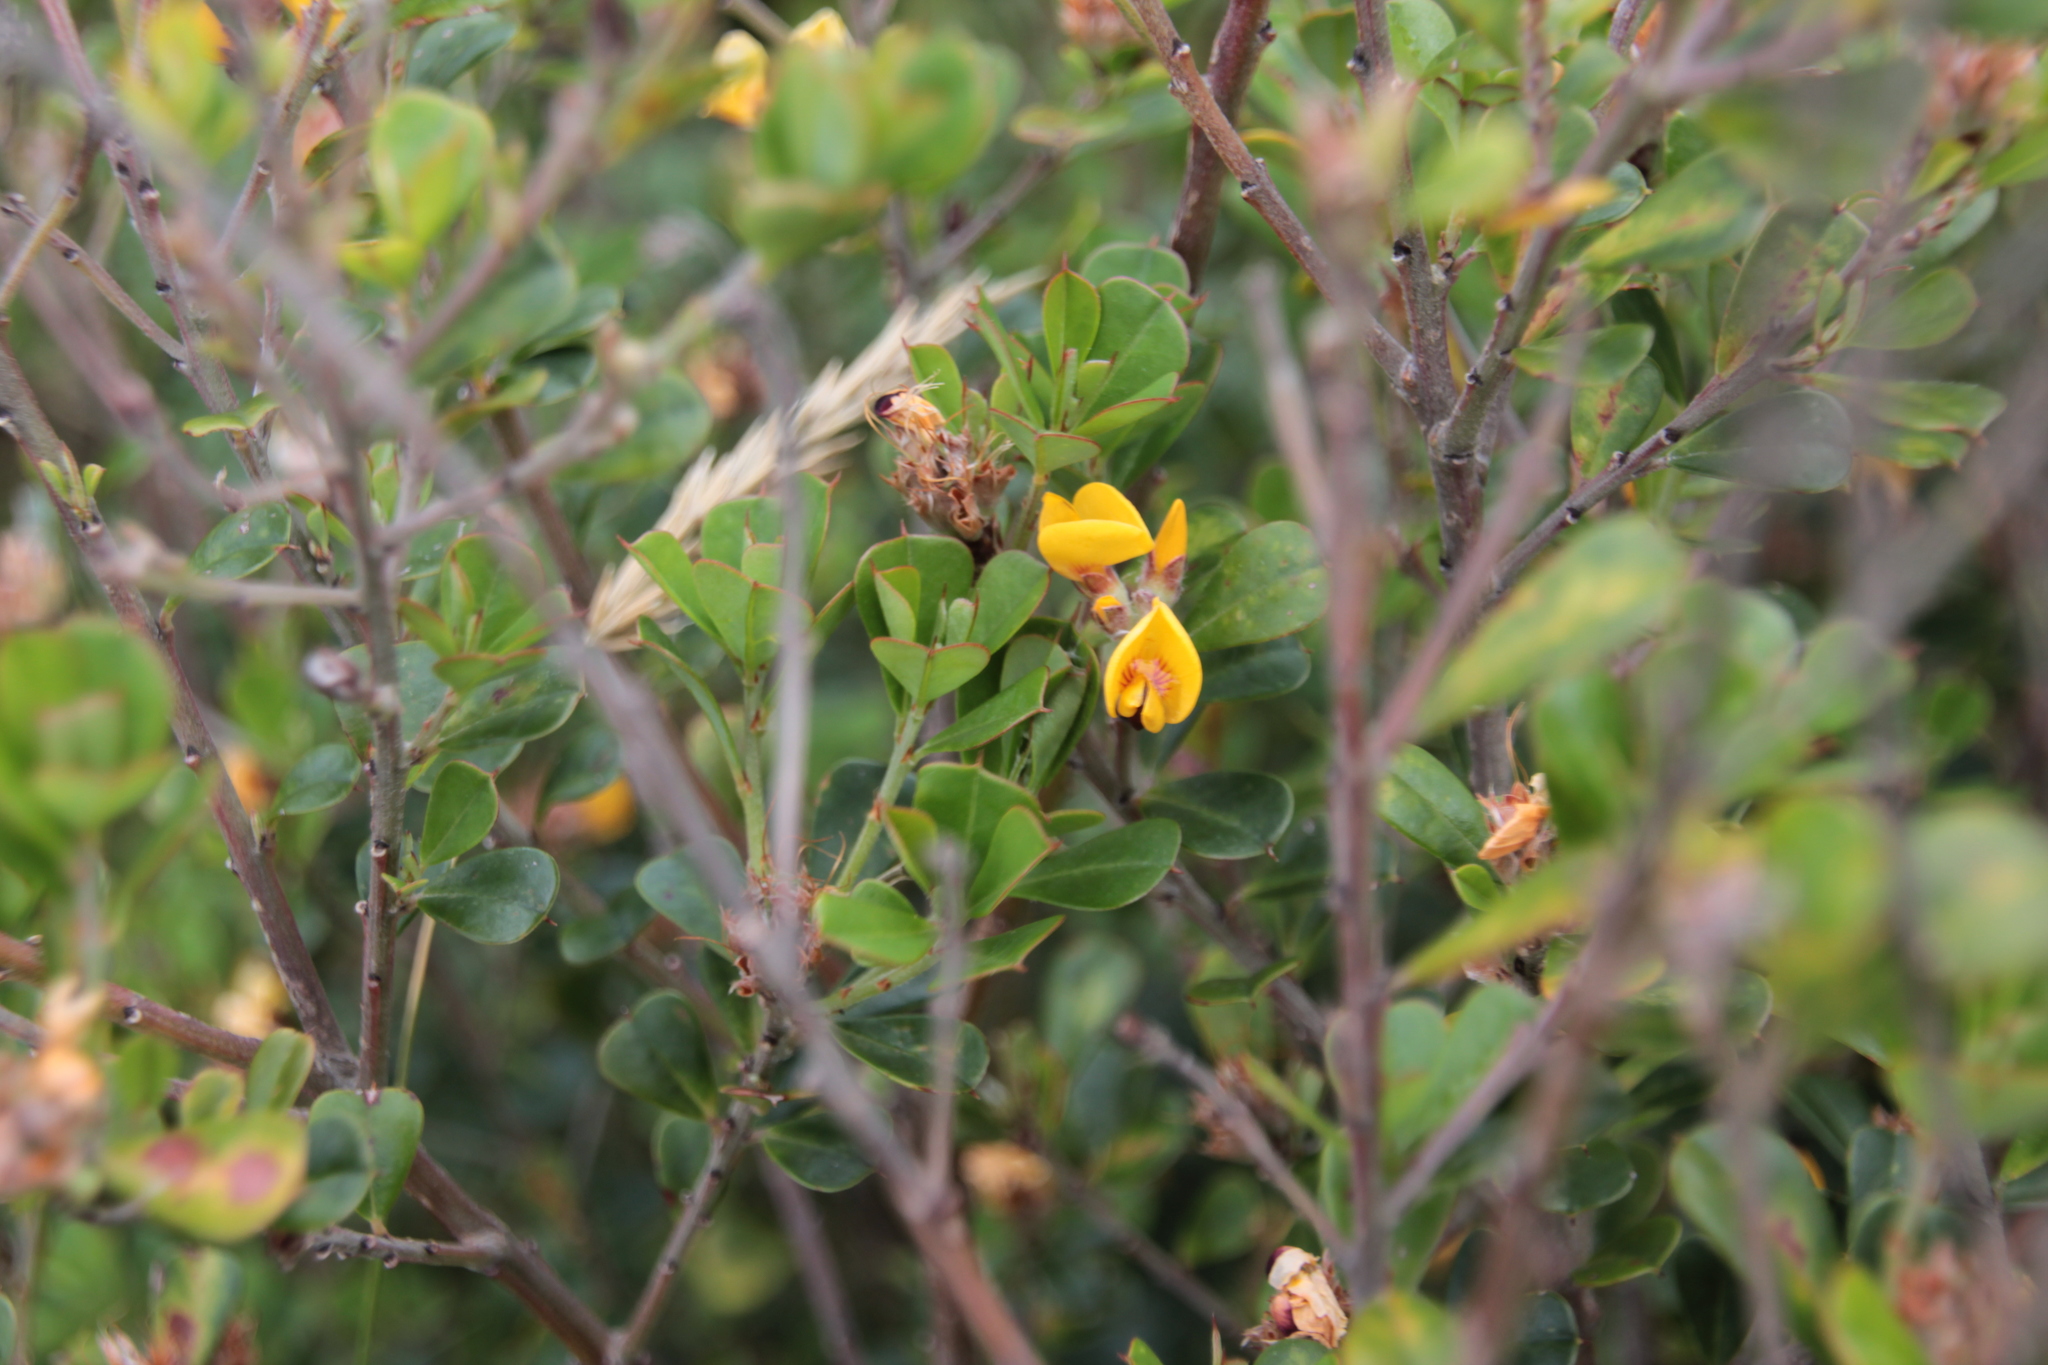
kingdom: Plantae
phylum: Tracheophyta
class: Magnoliopsida
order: Fabales
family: Fabaceae
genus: Pultenaea
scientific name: Pultenaea daphnoides
